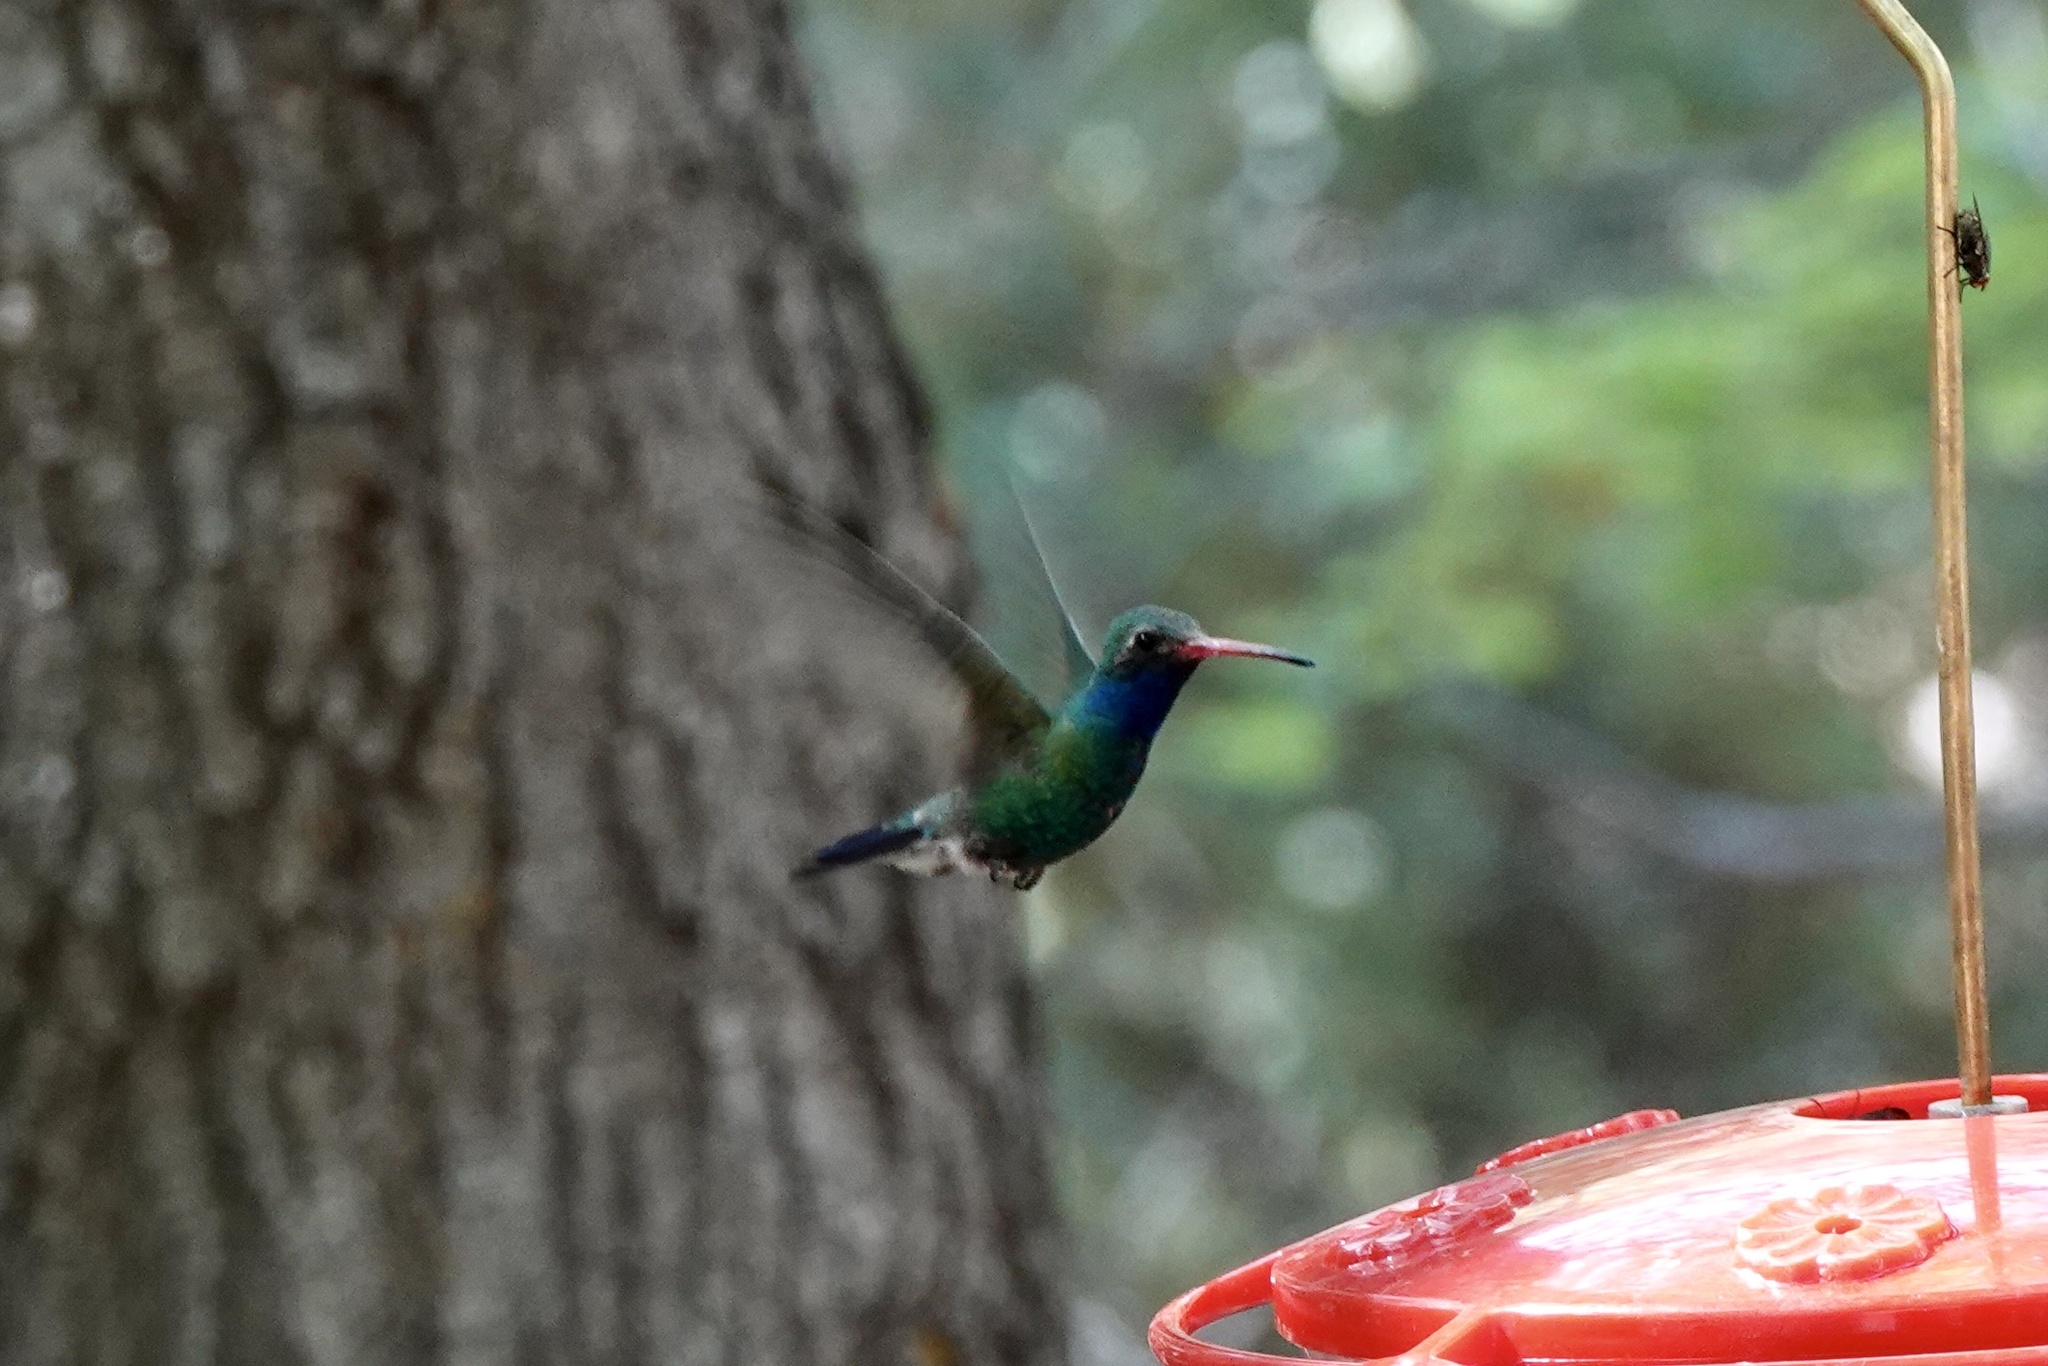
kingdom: Animalia
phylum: Chordata
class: Aves
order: Apodiformes
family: Trochilidae
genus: Cynanthus
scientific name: Cynanthus latirostris
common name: Broad-billed hummingbird
